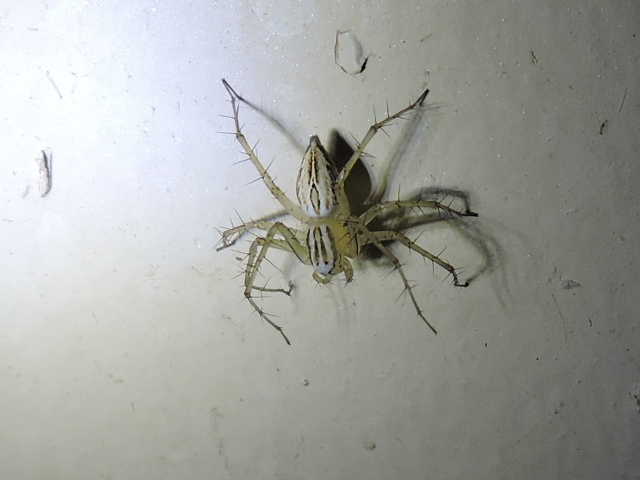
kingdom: Animalia
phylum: Arthropoda
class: Arachnida
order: Araneae
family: Oxyopidae
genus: Oxyopes
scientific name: Oxyopes salticus
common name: Lynx spiders
